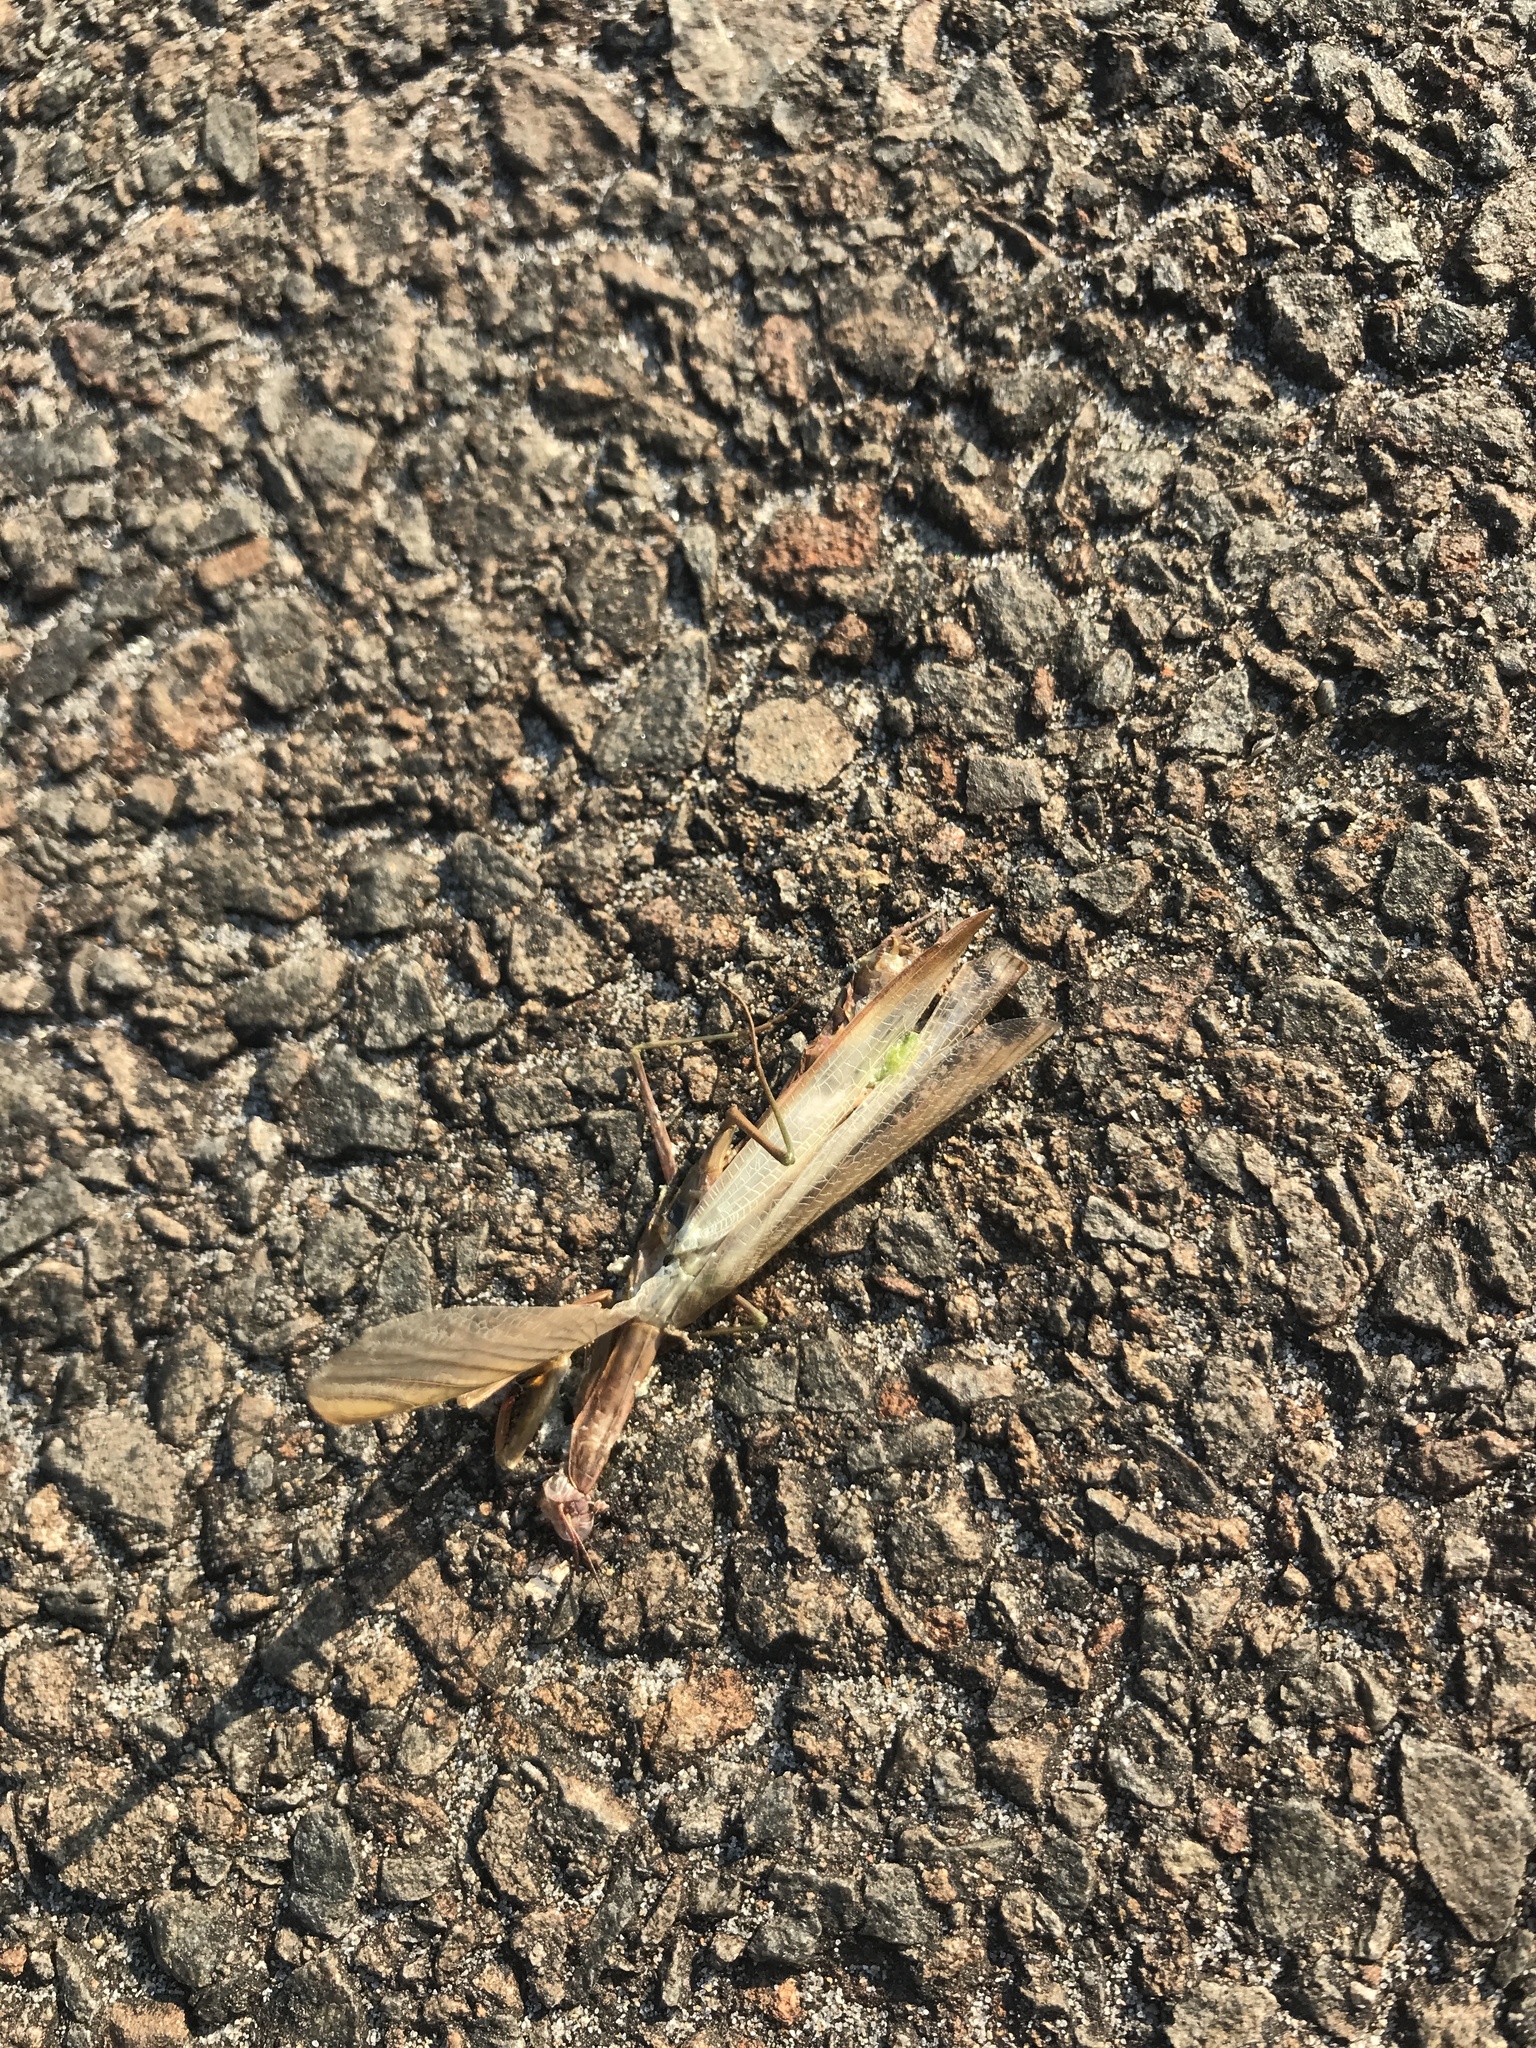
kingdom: Animalia
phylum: Arthropoda
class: Insecta
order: Mantodea
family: Mantidae
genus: Mantis
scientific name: Mantis religiosa
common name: Praying mantis
